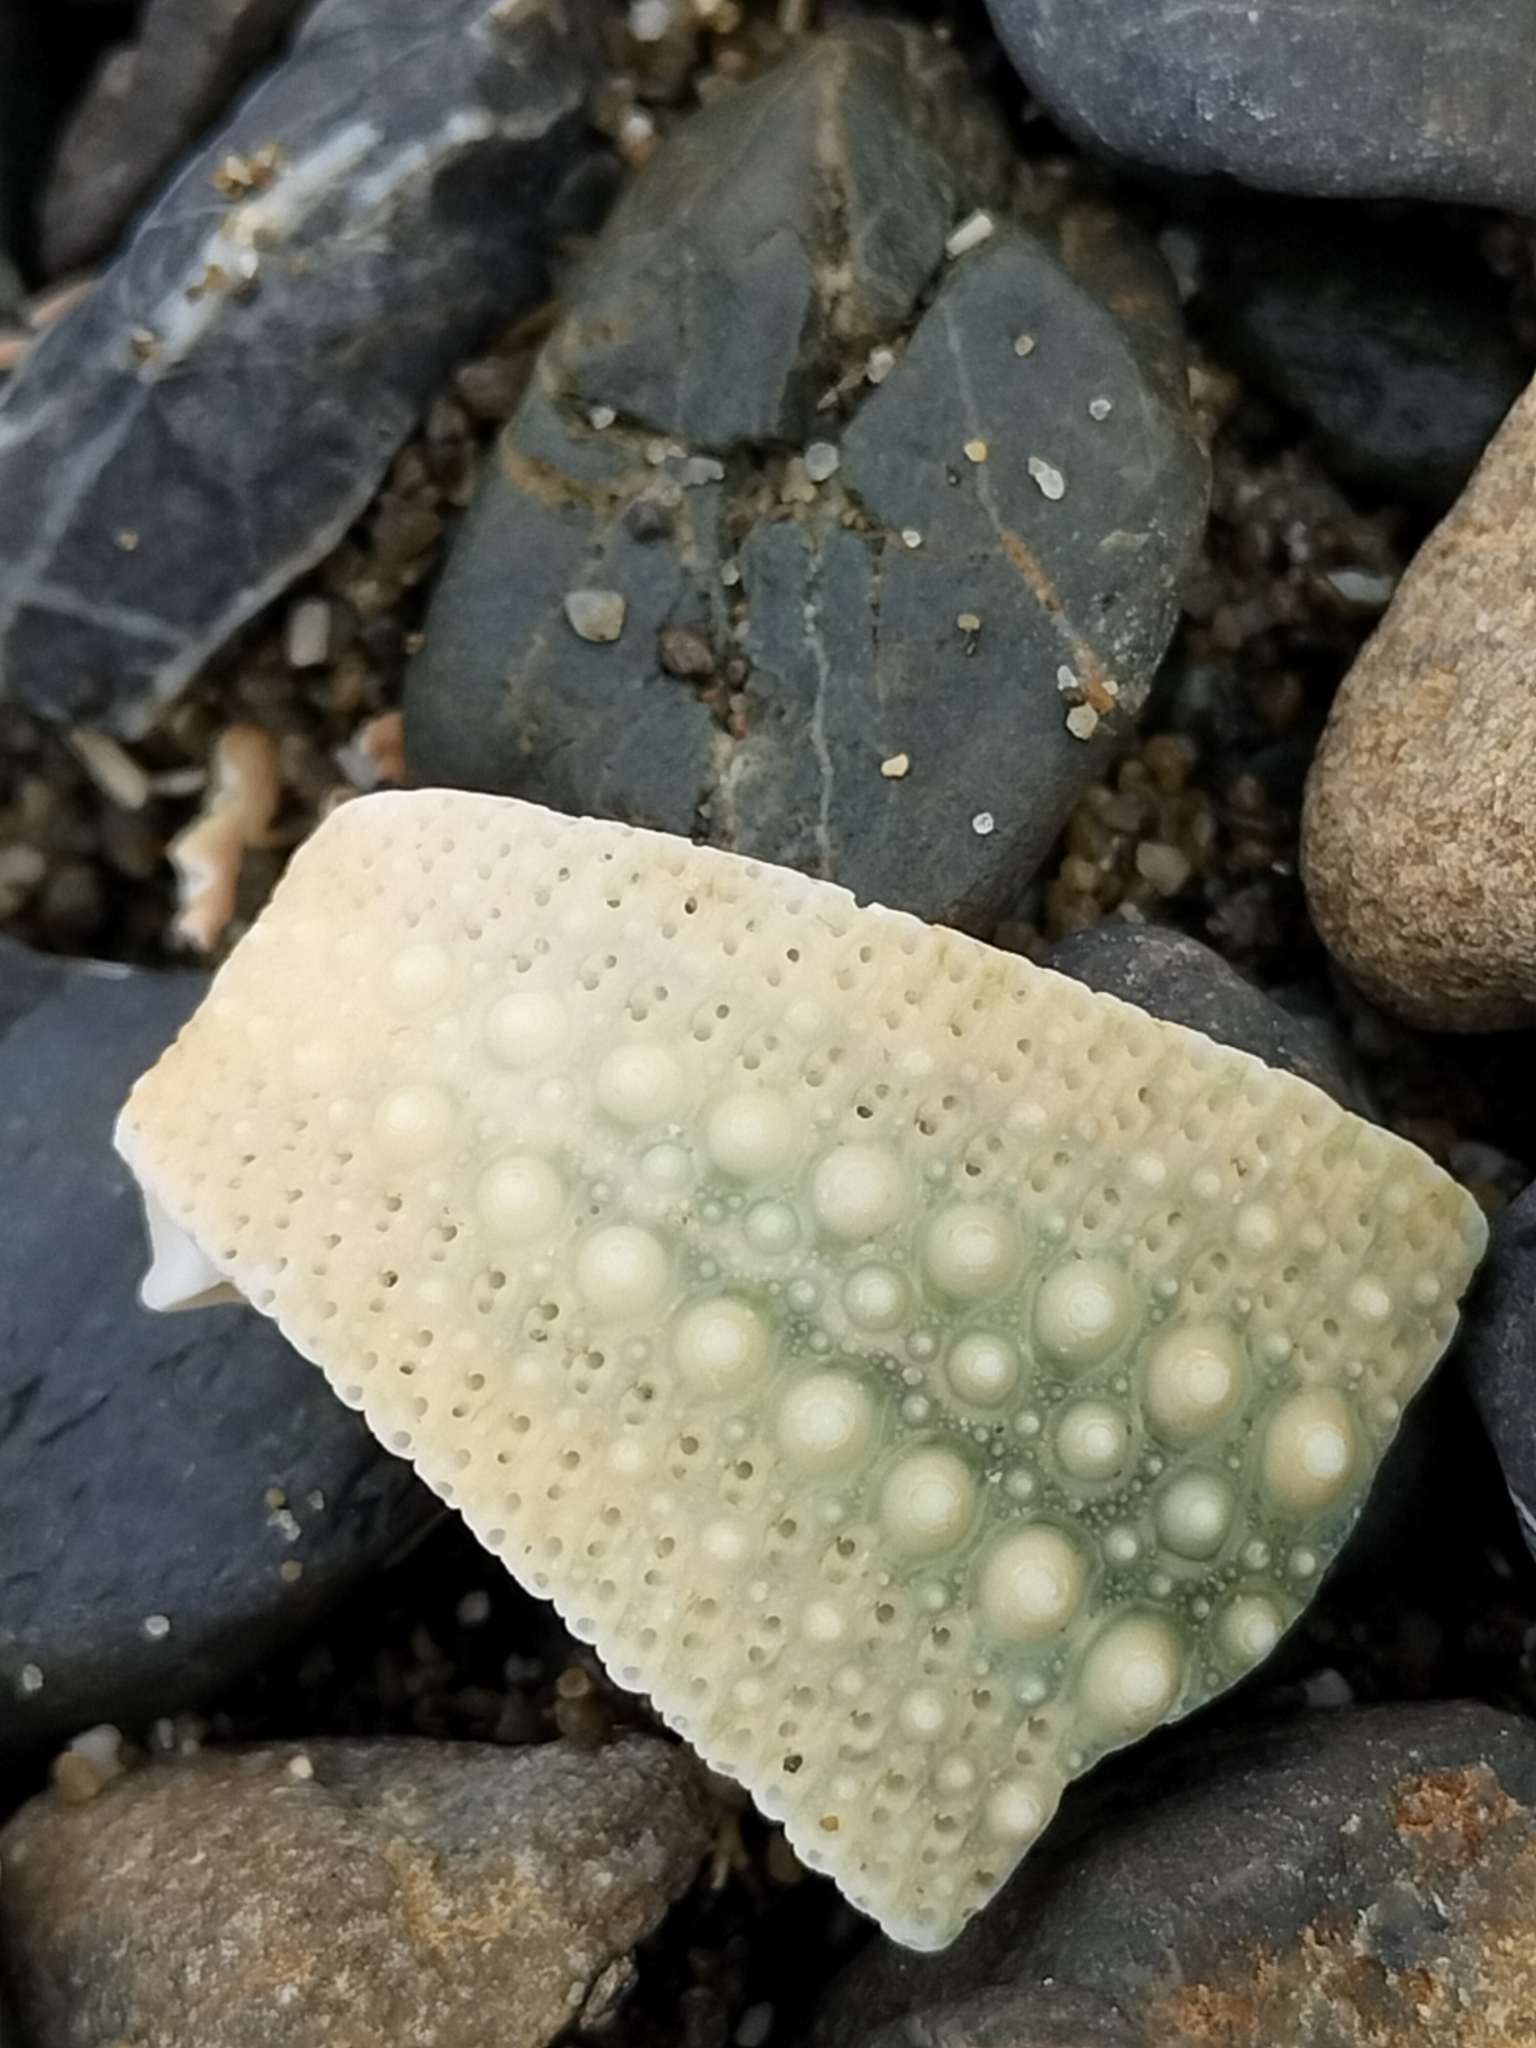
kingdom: Animalia
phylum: Echinodermata
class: Echinoidea
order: Camarodonta
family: Echinometridae
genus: Evechinus
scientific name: Evechinus chloroticus
